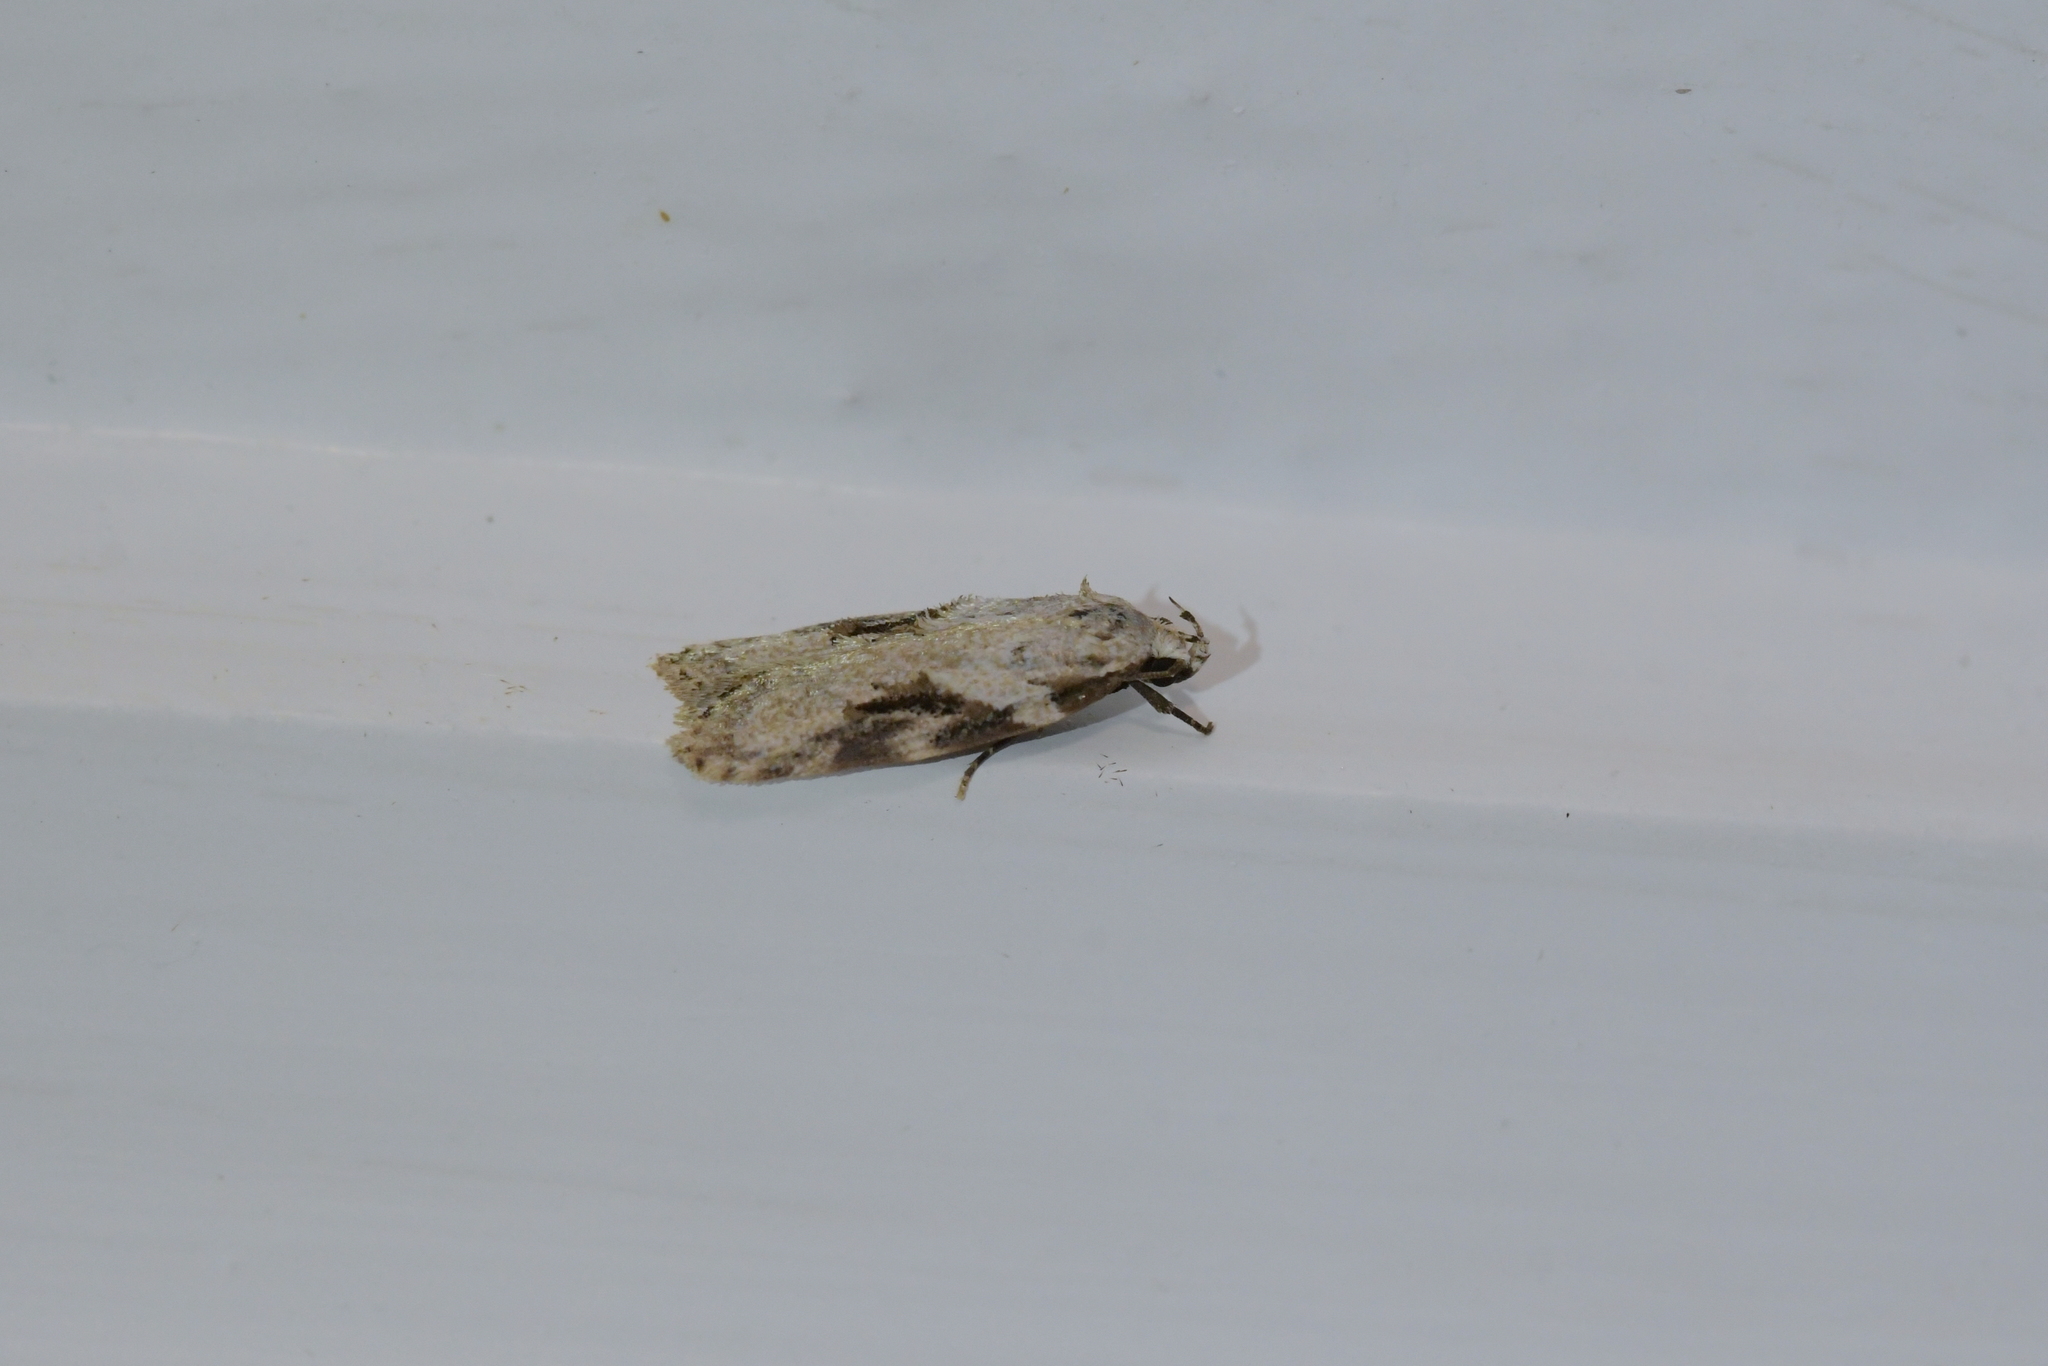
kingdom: Animalia
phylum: Arthropoda
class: Insecta
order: Lepidoptera
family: Oecophoridae
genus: Izatha
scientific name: Izatha mesoschista
